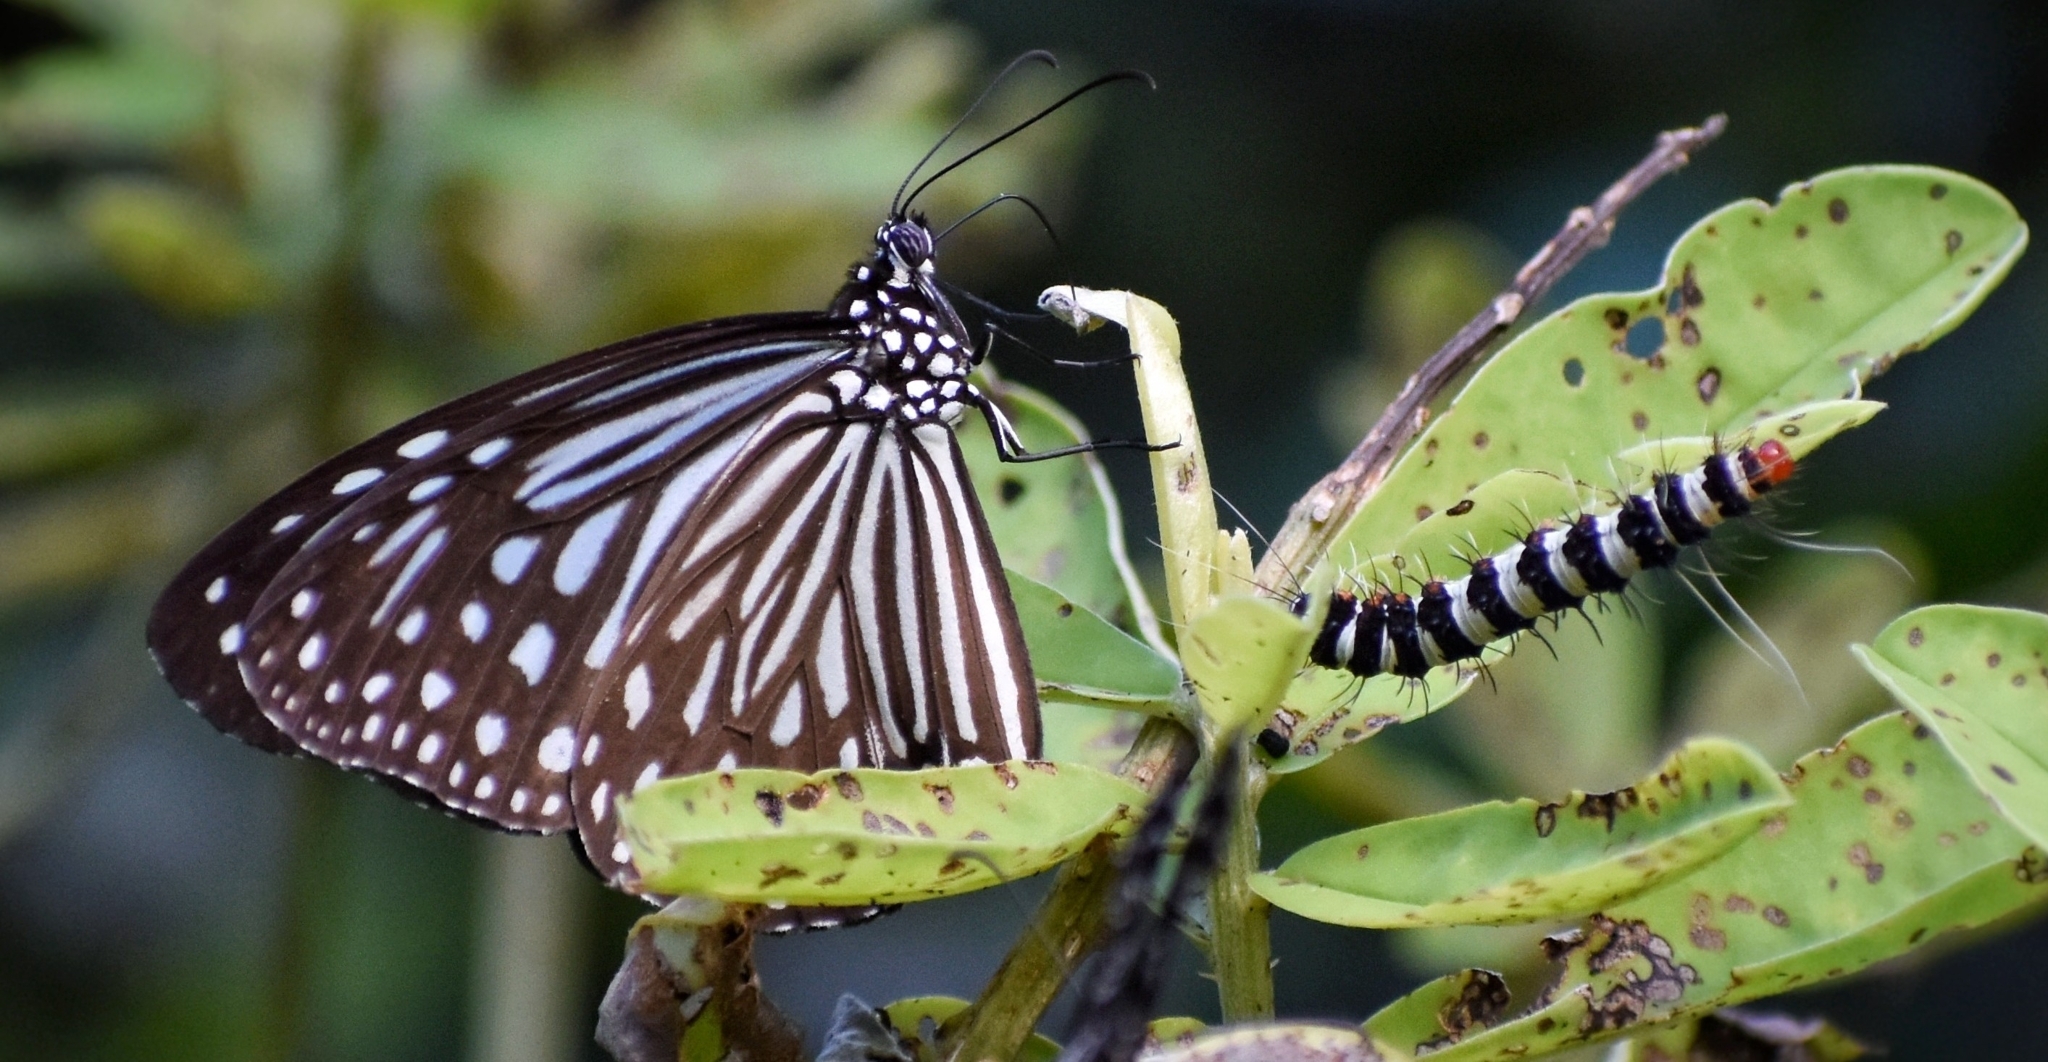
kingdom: Animalia
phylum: Arthropoda
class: Insecta
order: Lepidoptera
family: Nymphalidae
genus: Parantica
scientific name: Parantica agleoides
